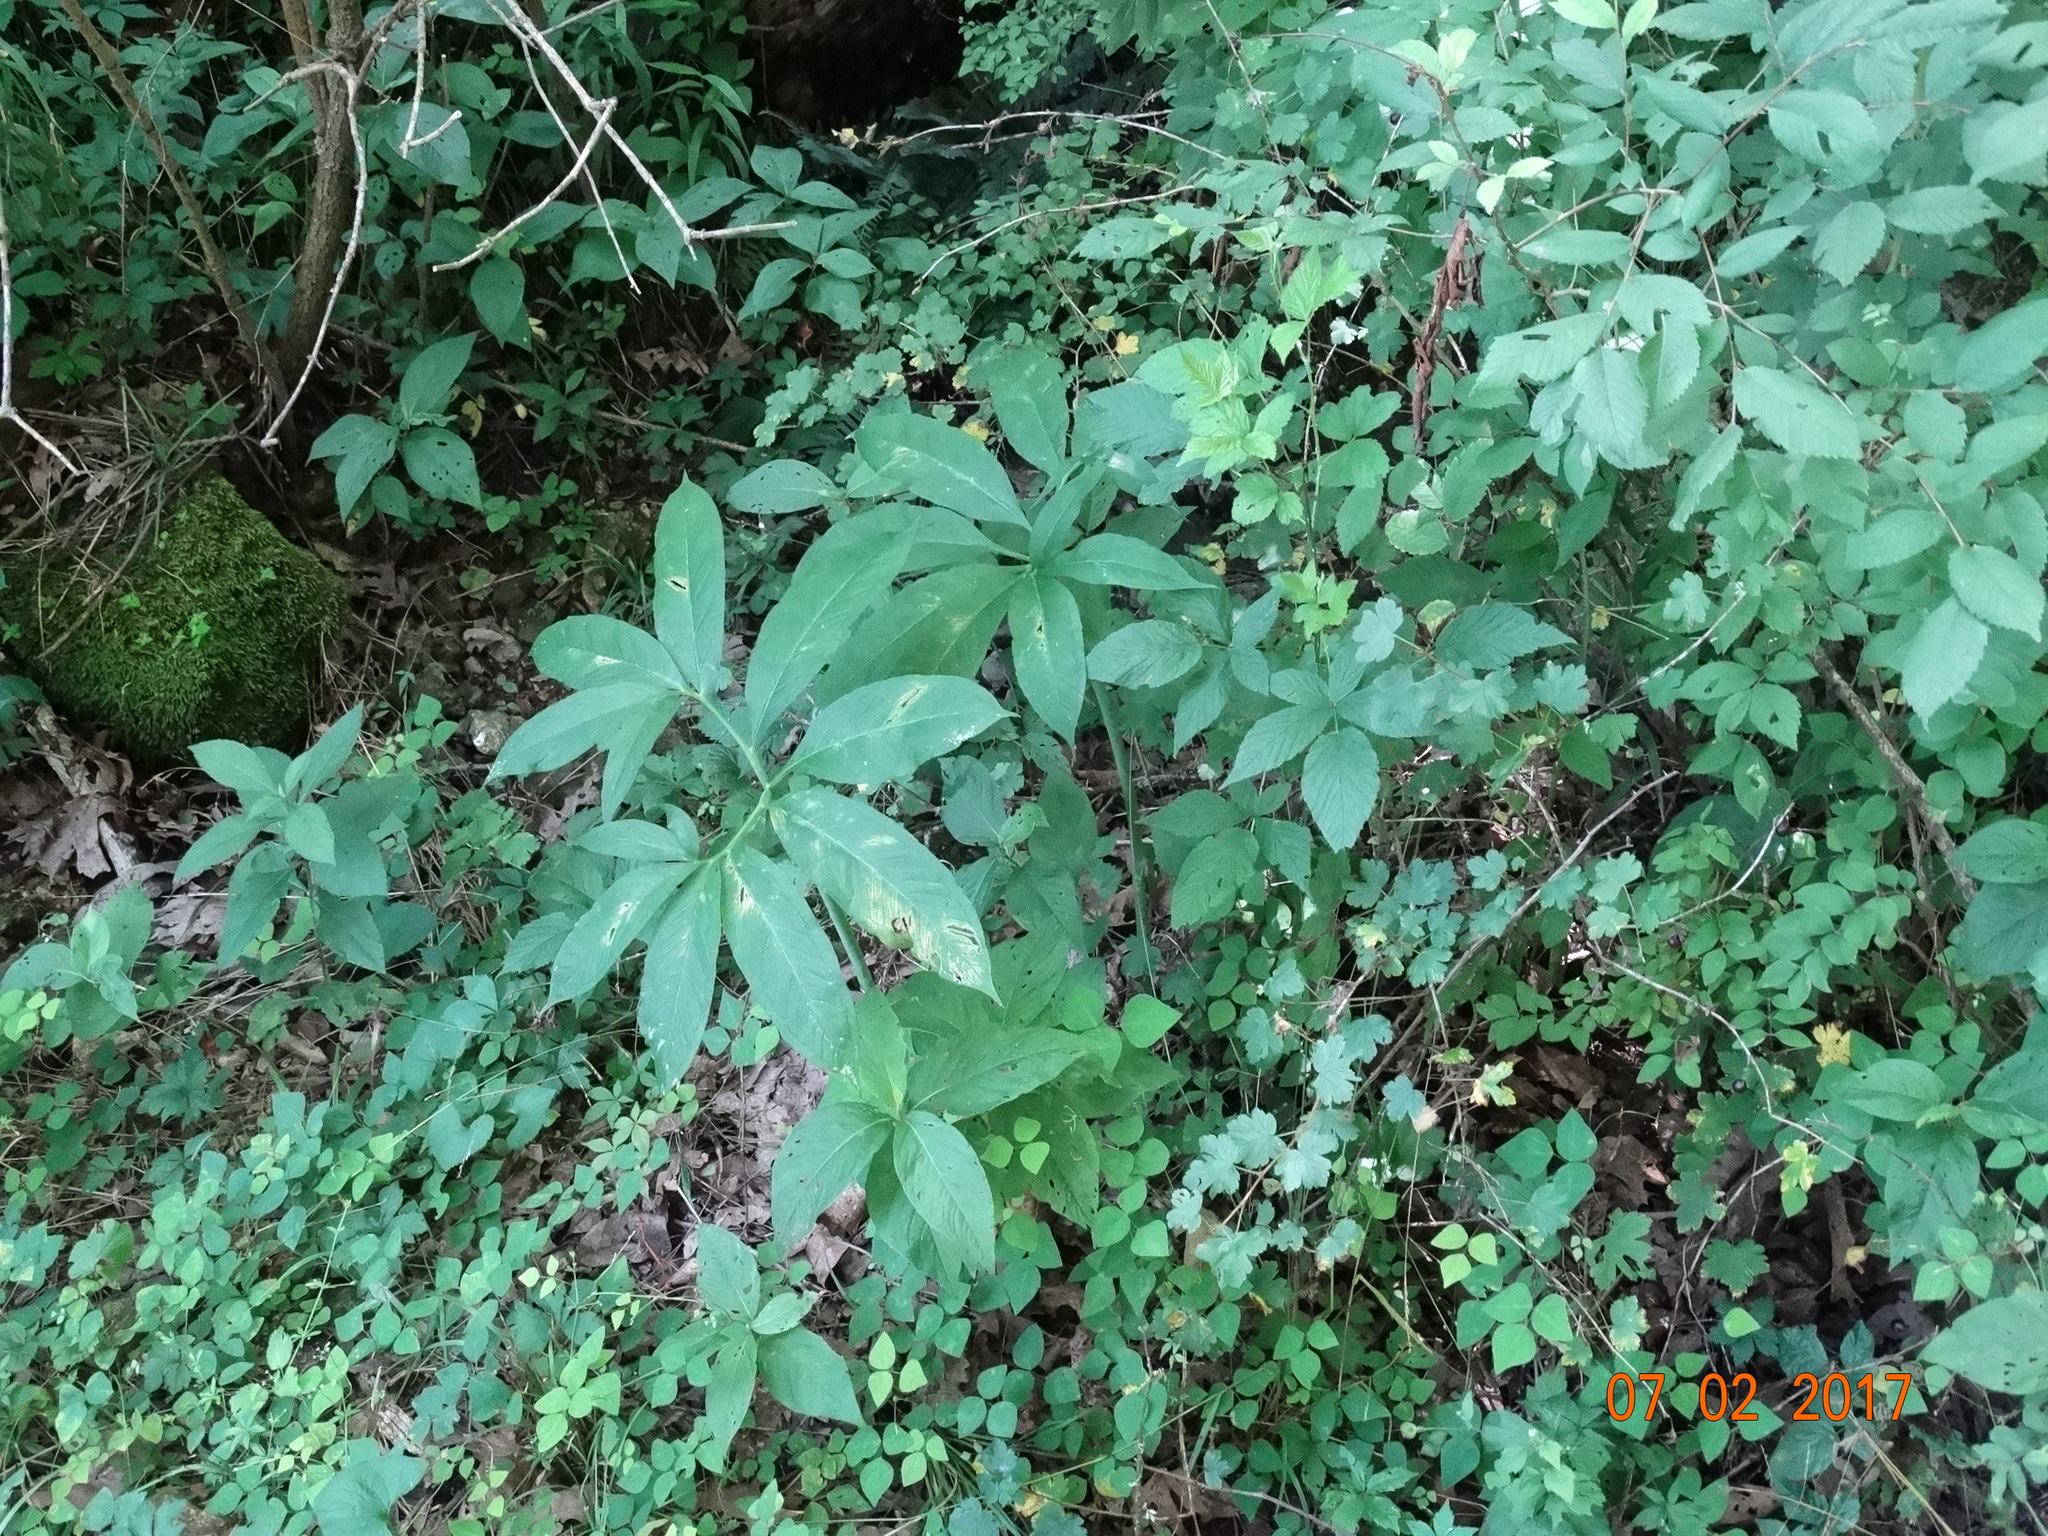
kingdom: Plantae
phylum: Tracheophyta
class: Liliopsida
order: Alismatales
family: Araceae
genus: Arisaema
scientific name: Arisaema dracontium
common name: Dragon-arum
